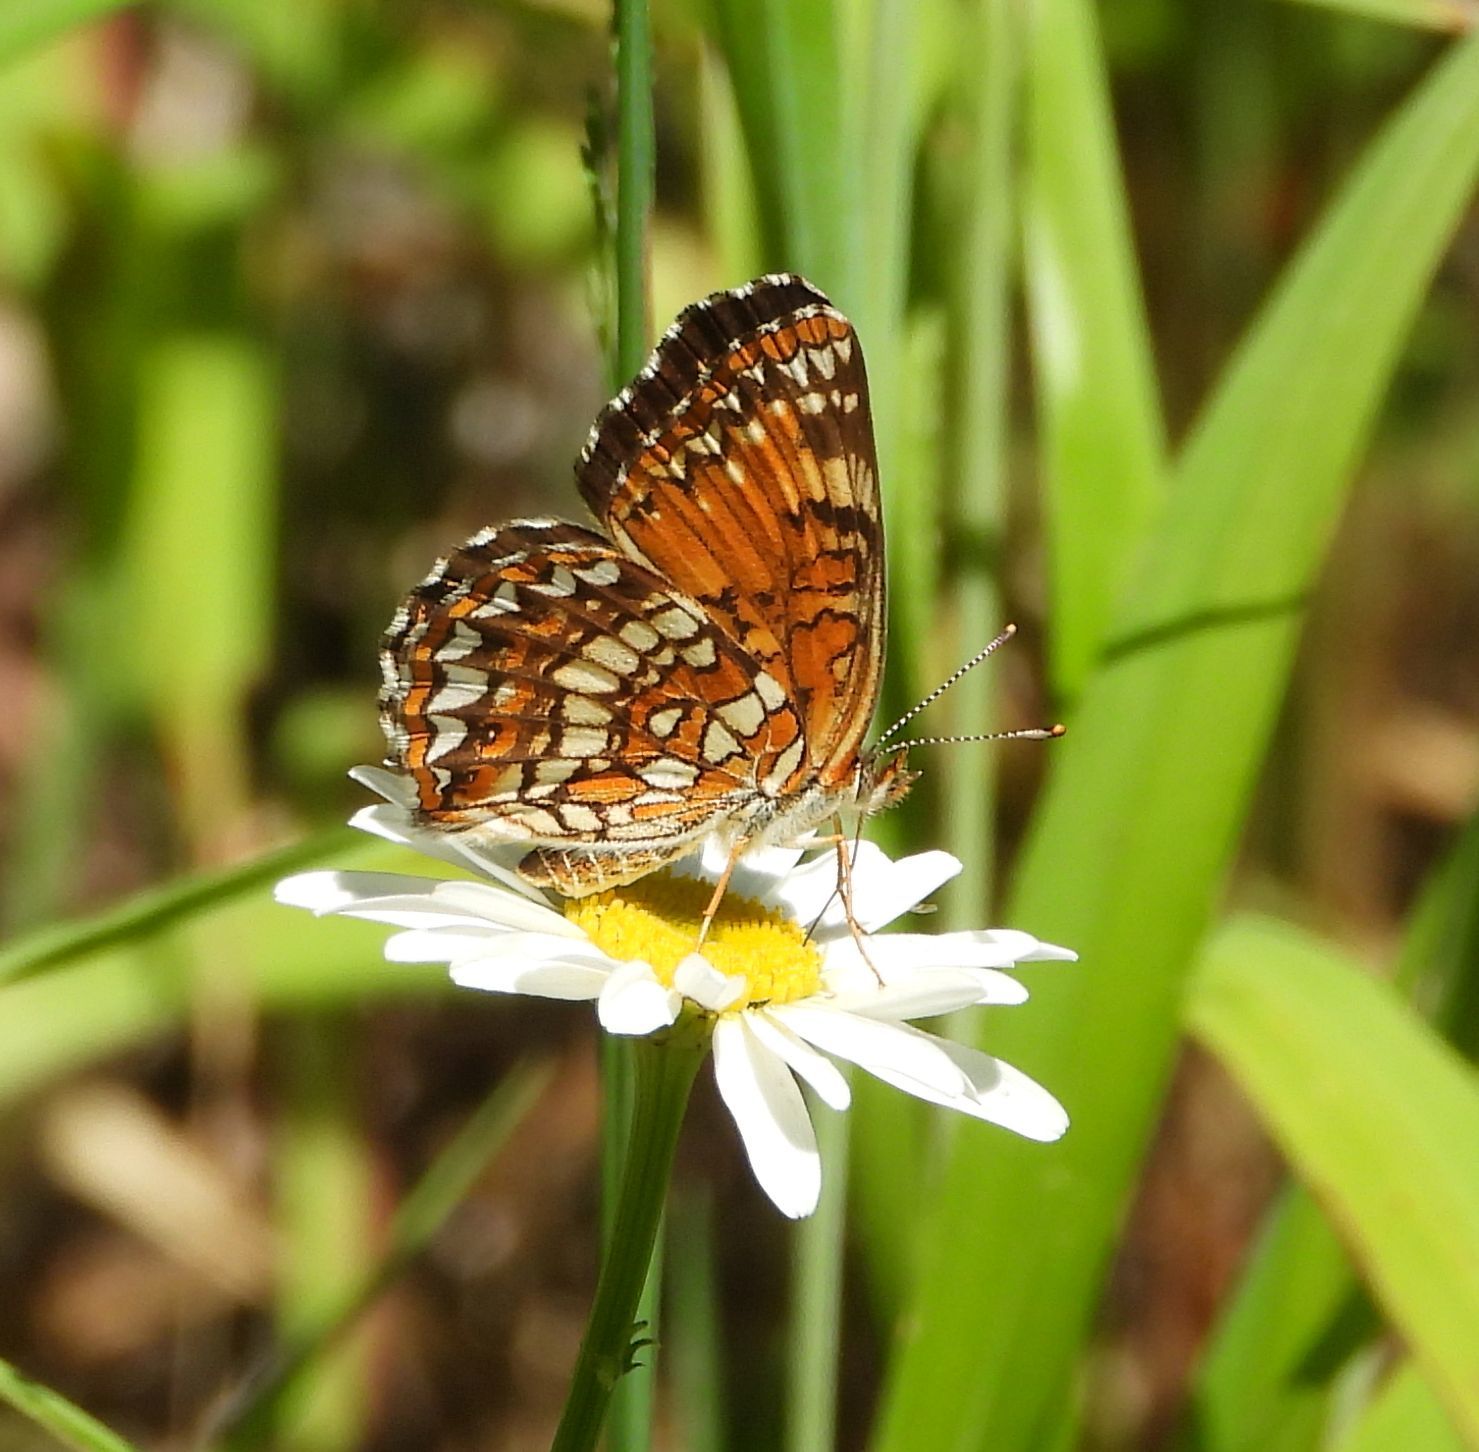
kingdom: Animalia
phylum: Arthropoda
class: Insecta
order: Lepidoptera
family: Nymphalidae
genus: Chlosyne
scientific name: Chlosyne harrisii
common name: Harris's checkerspot
